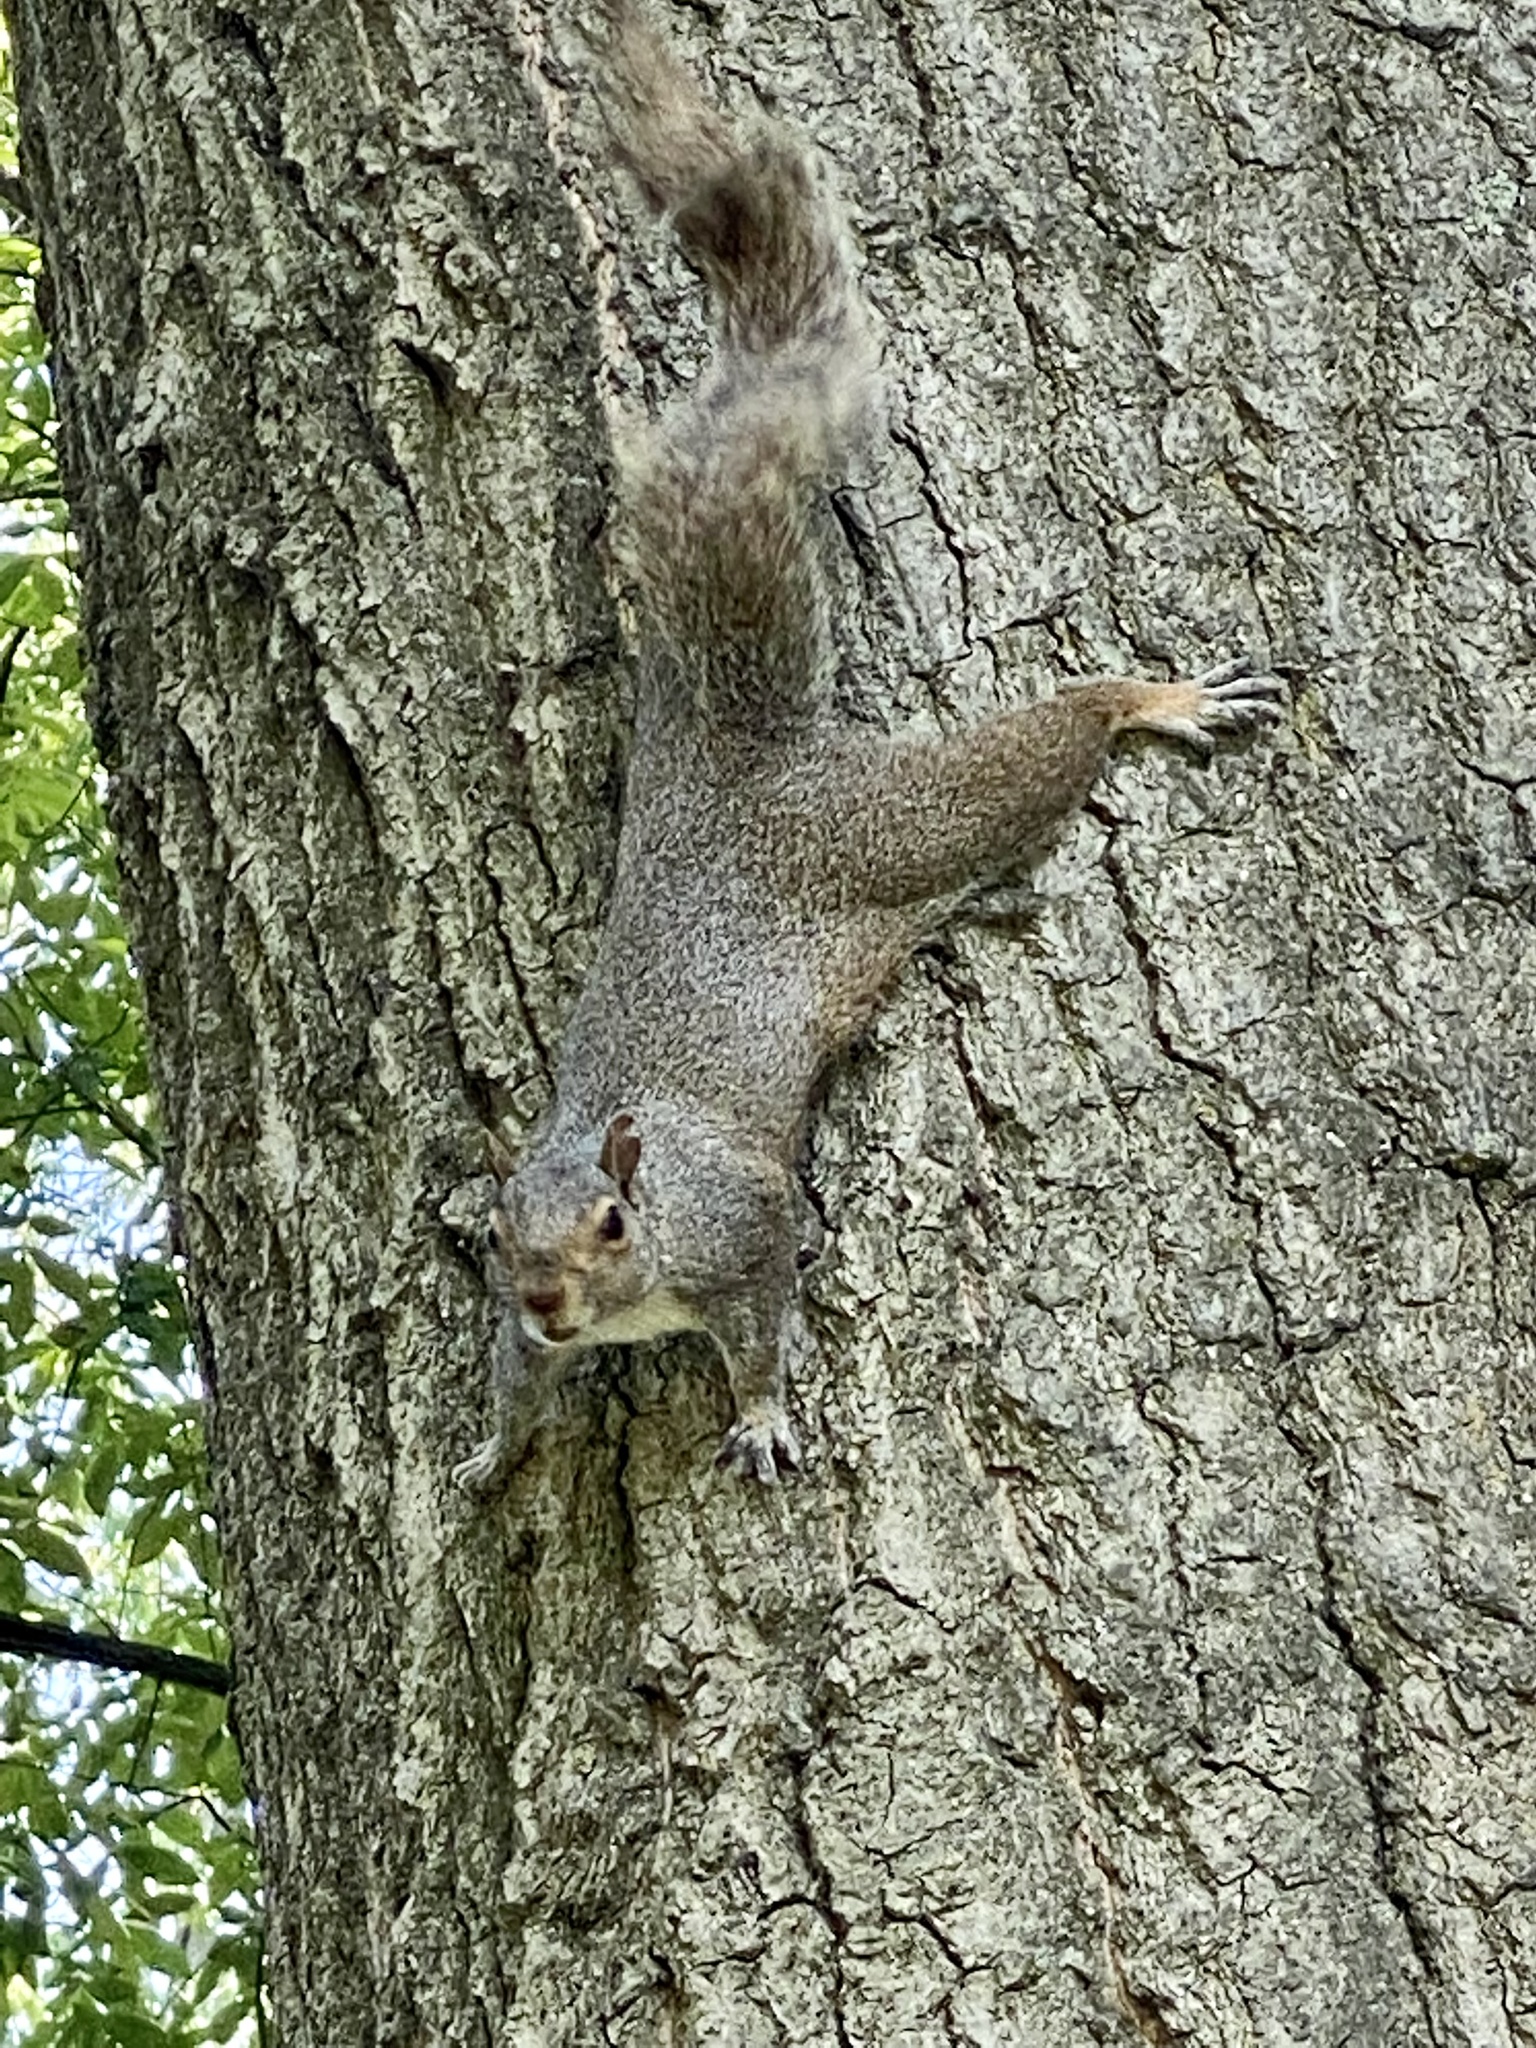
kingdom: Animalia
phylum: Chordata
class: Mammalia
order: Rodentia
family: Sciuridae
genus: Sciurus
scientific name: Sciurus carolinensis
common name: Eastern gray squirrel
